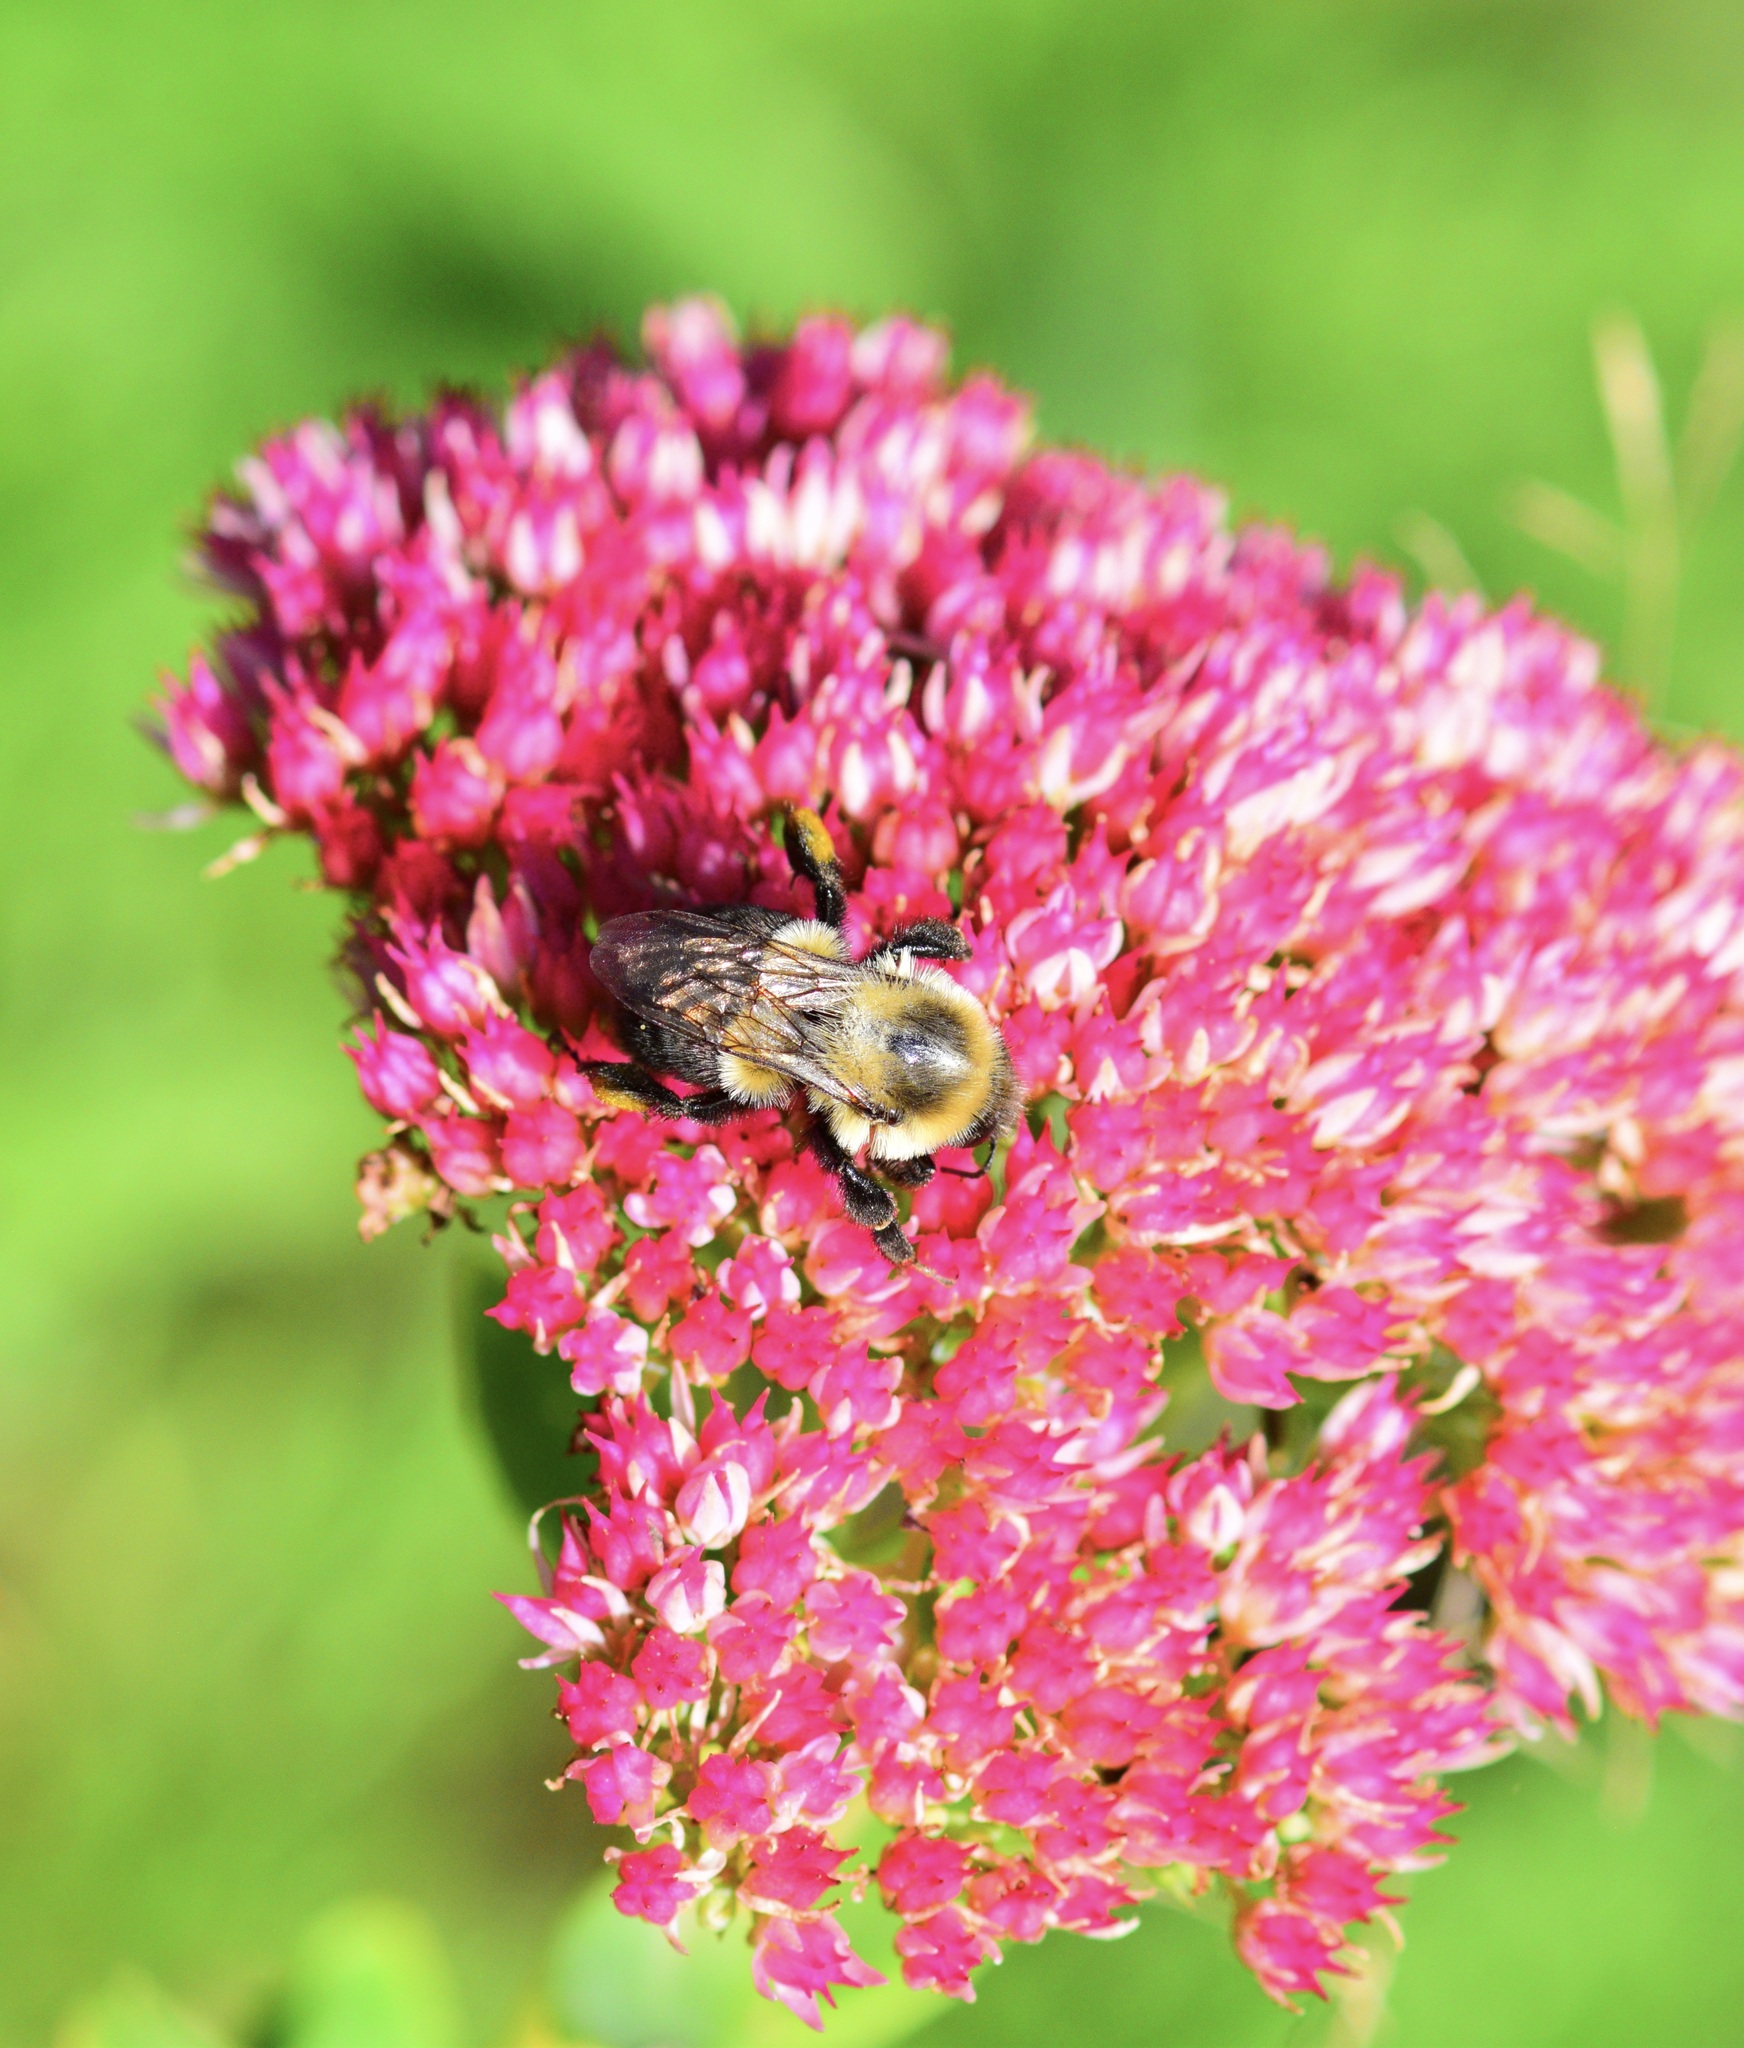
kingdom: Animalia
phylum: Arthropoda
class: Insecta
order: Hymenoptera
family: Apidae
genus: Bombus
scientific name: Bombus impatiens
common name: Common eastern bumble bee
